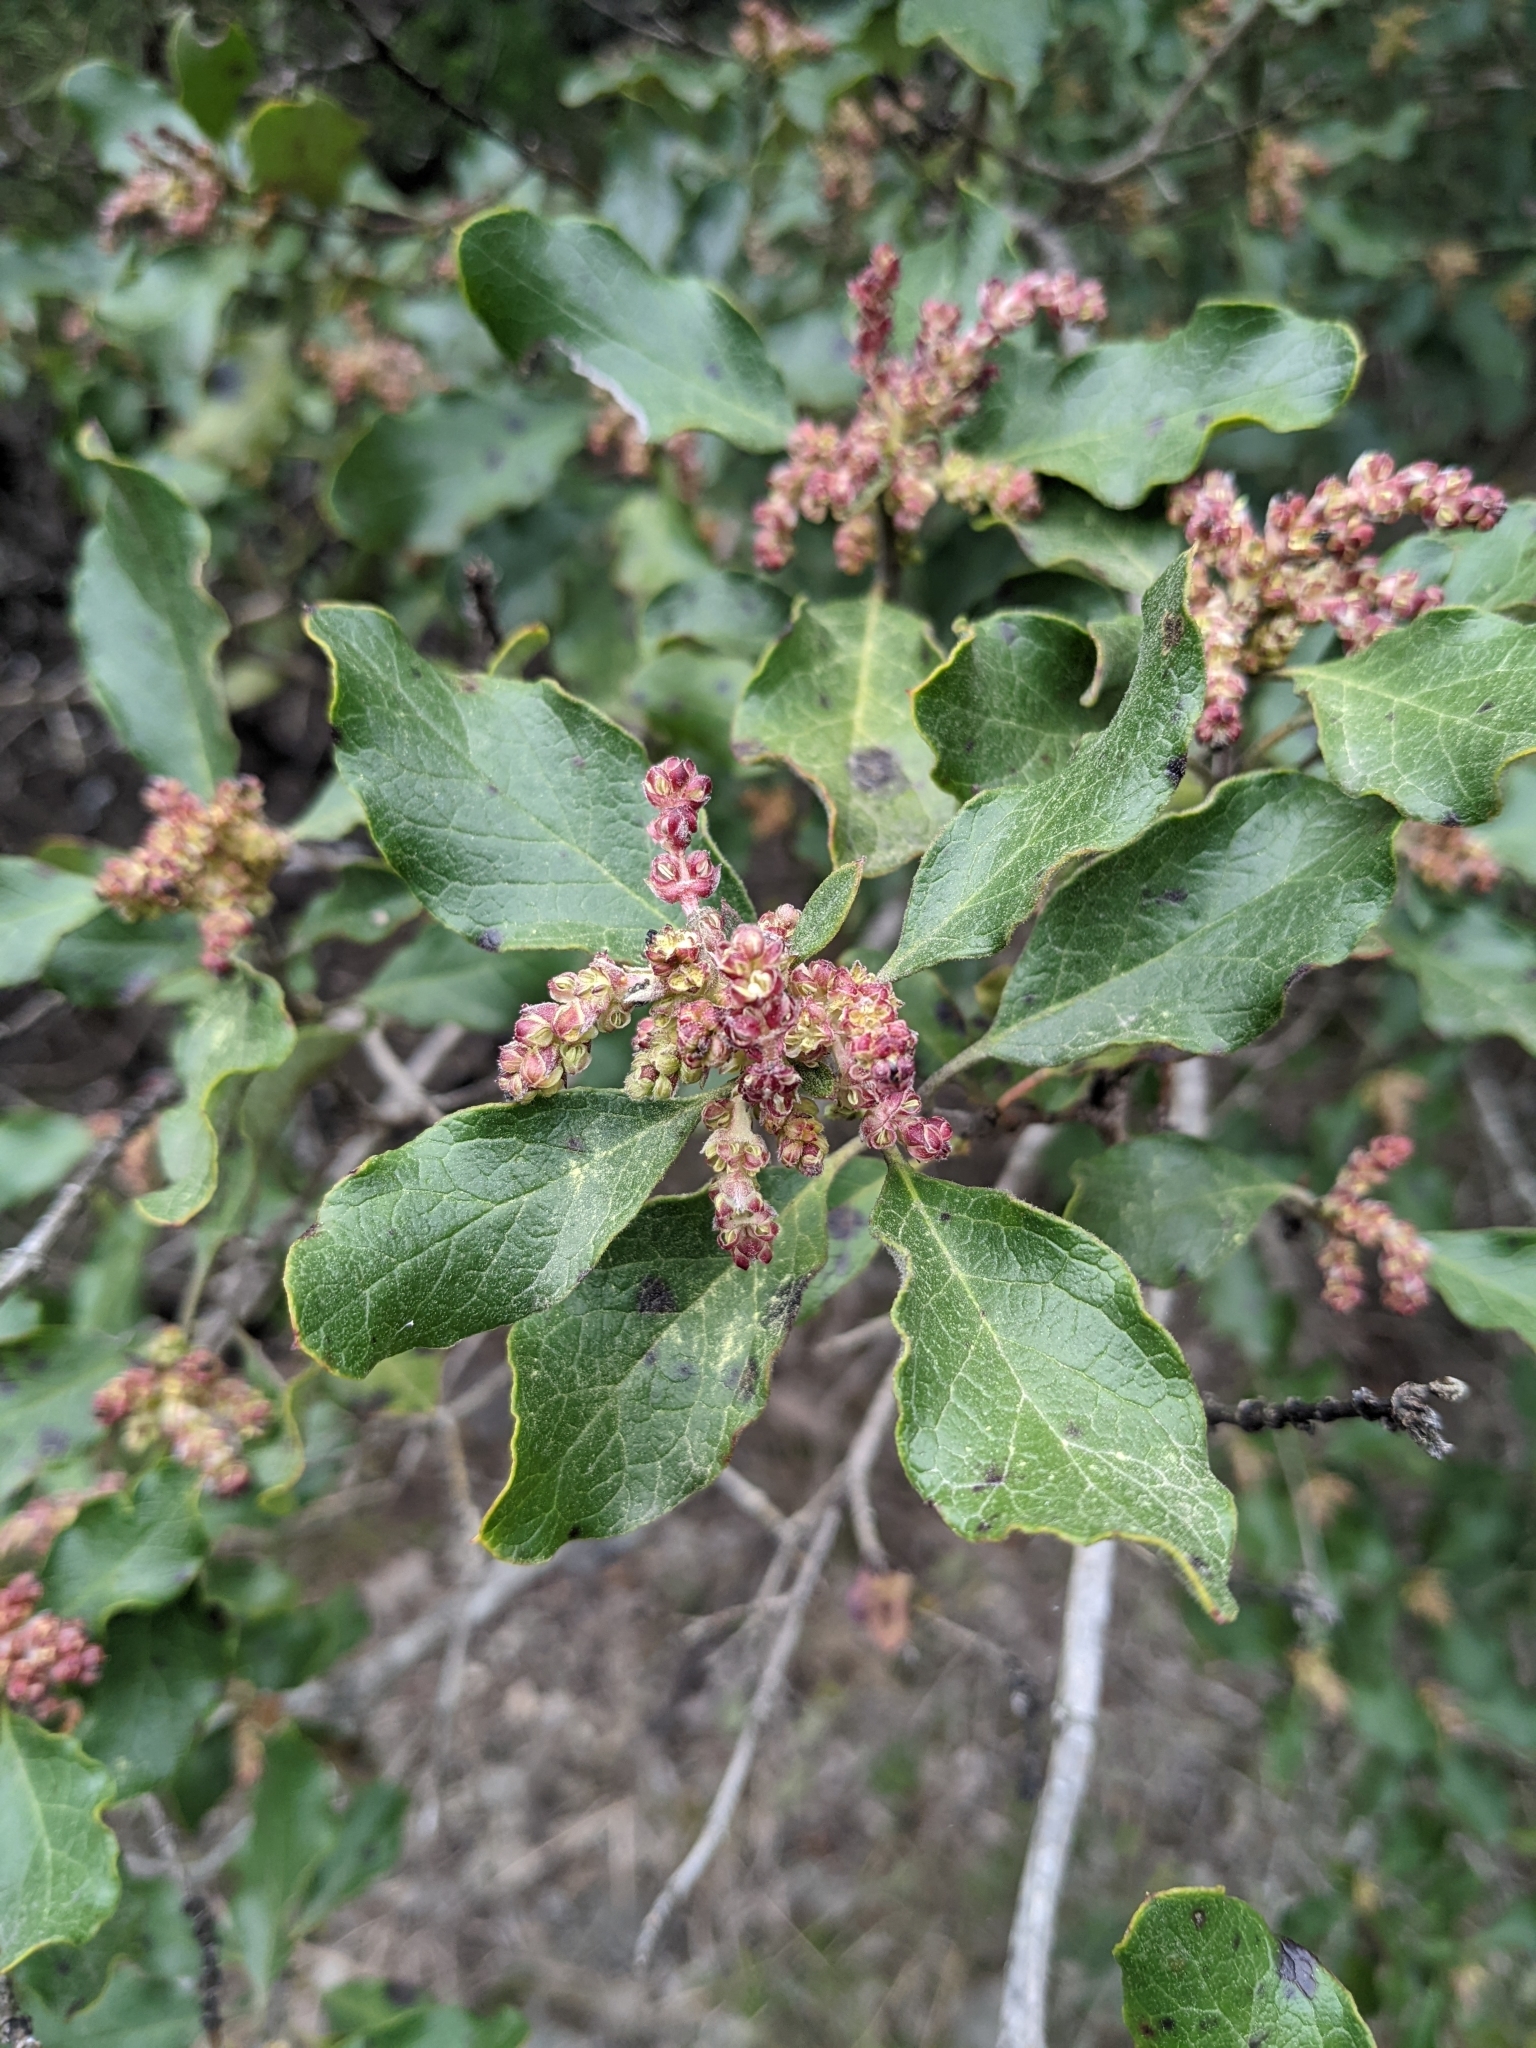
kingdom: Plantae
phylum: Tracheophyta
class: Magnoliopsida
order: Garryales
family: Garryaceae
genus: Garrya
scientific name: Garrya lindheimeri
